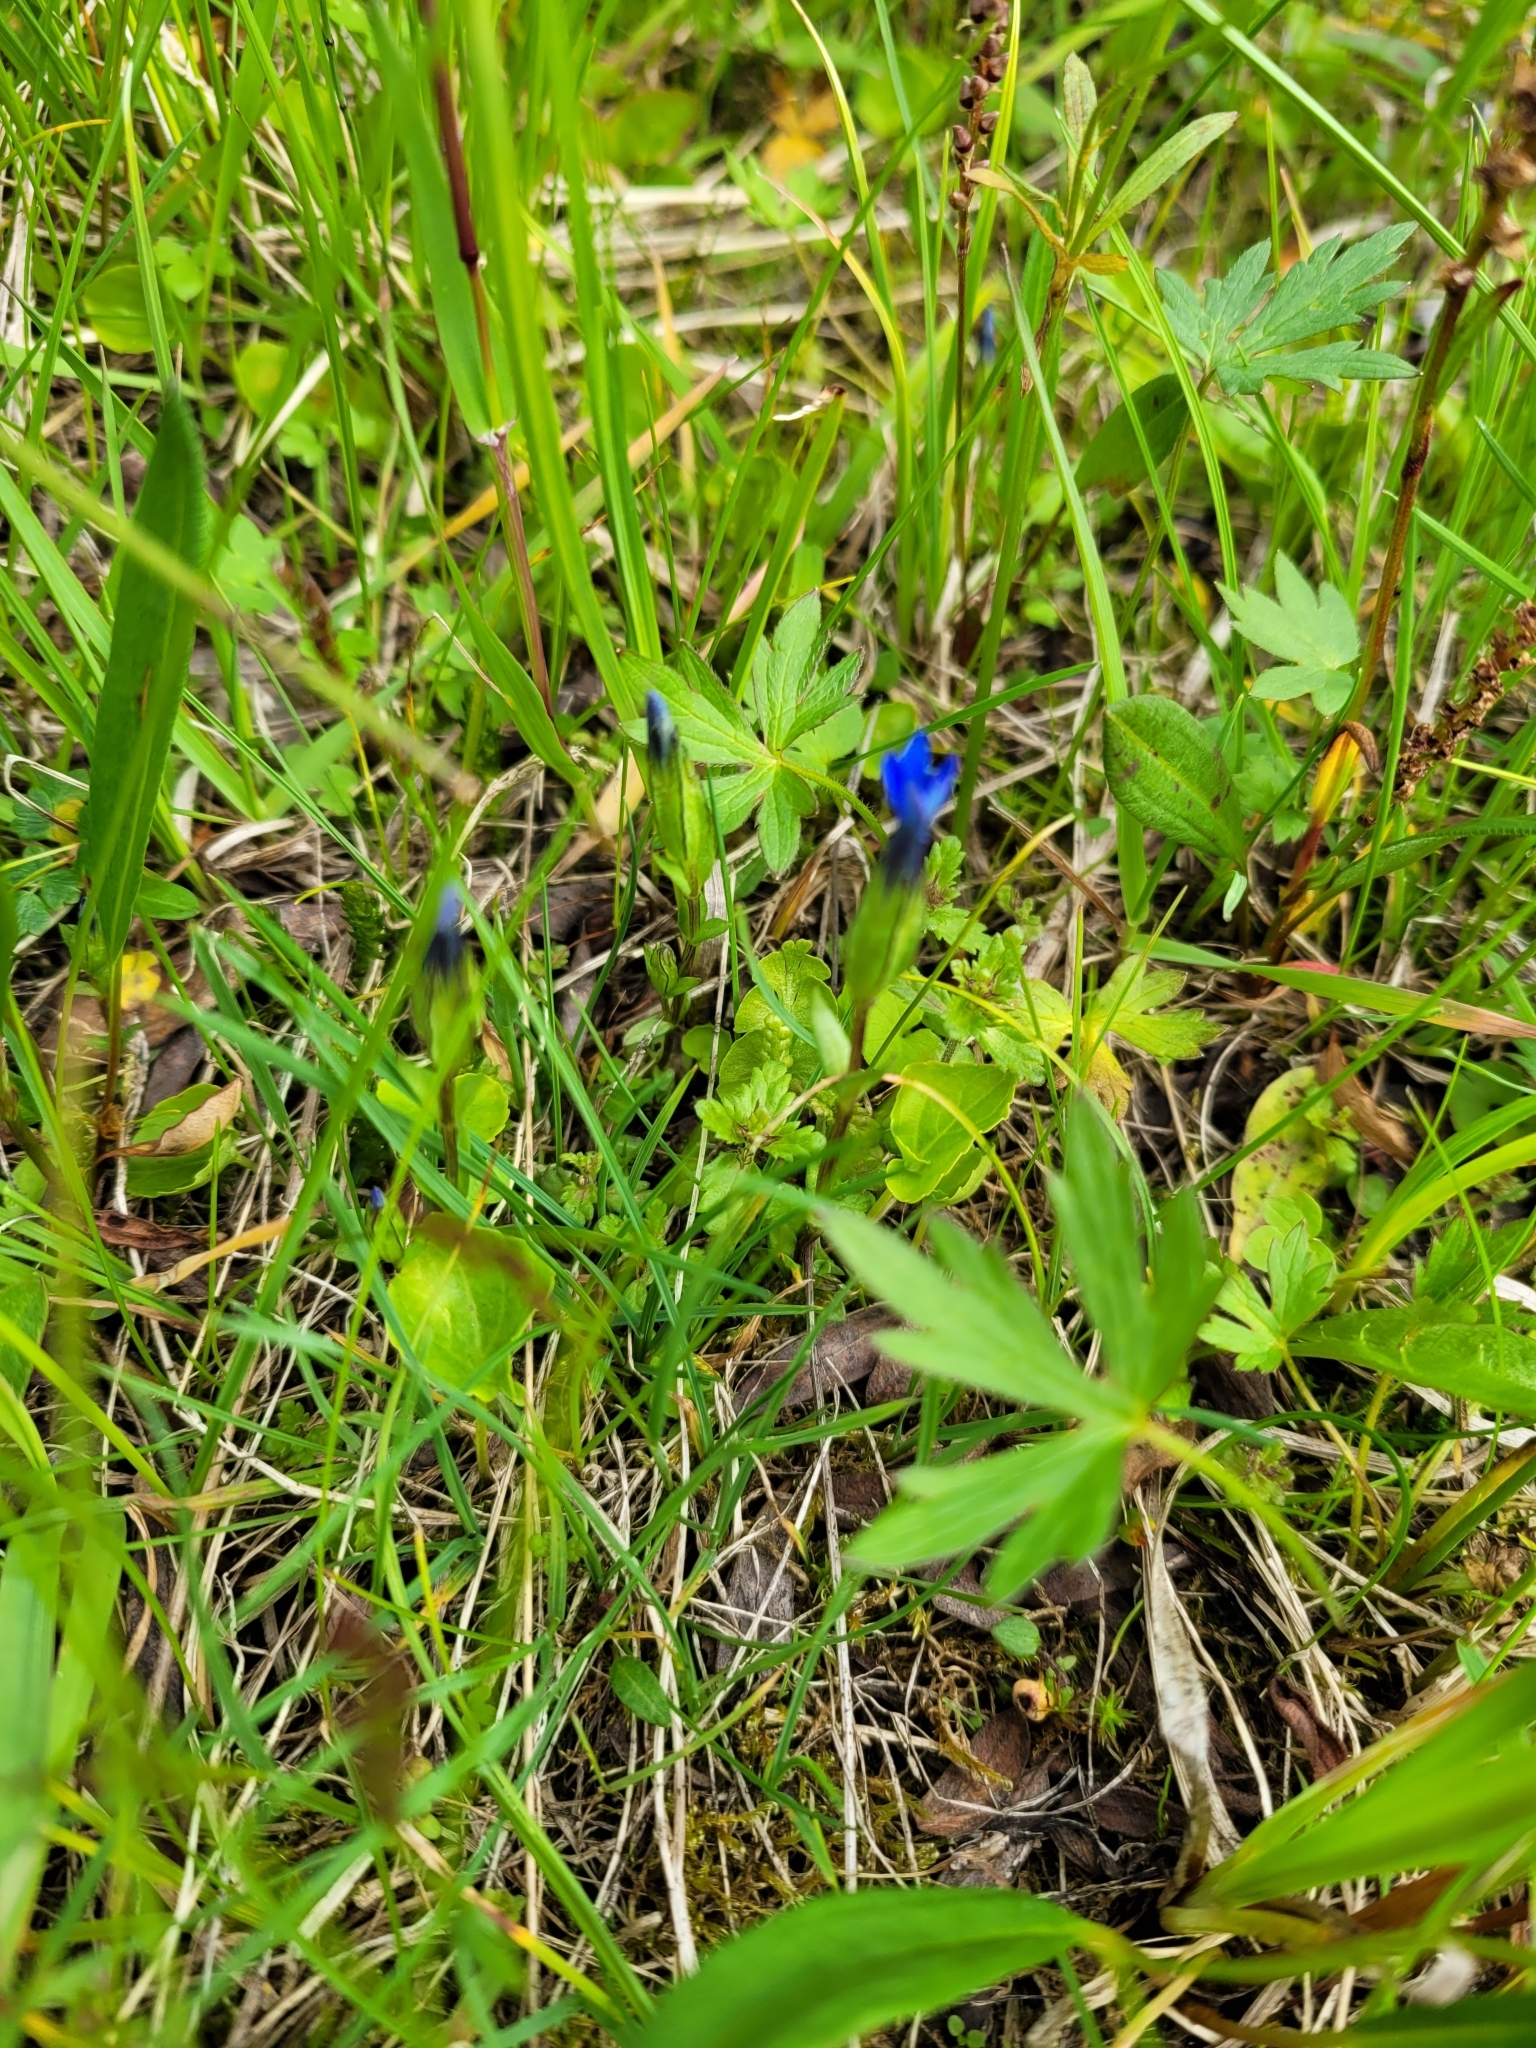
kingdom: Plantae
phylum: Tracheophyta
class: Magnoliopsida
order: Gentianales
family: Gentianaceae
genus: Gentiana
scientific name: Gentiana nivalis
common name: Alpine gentian
